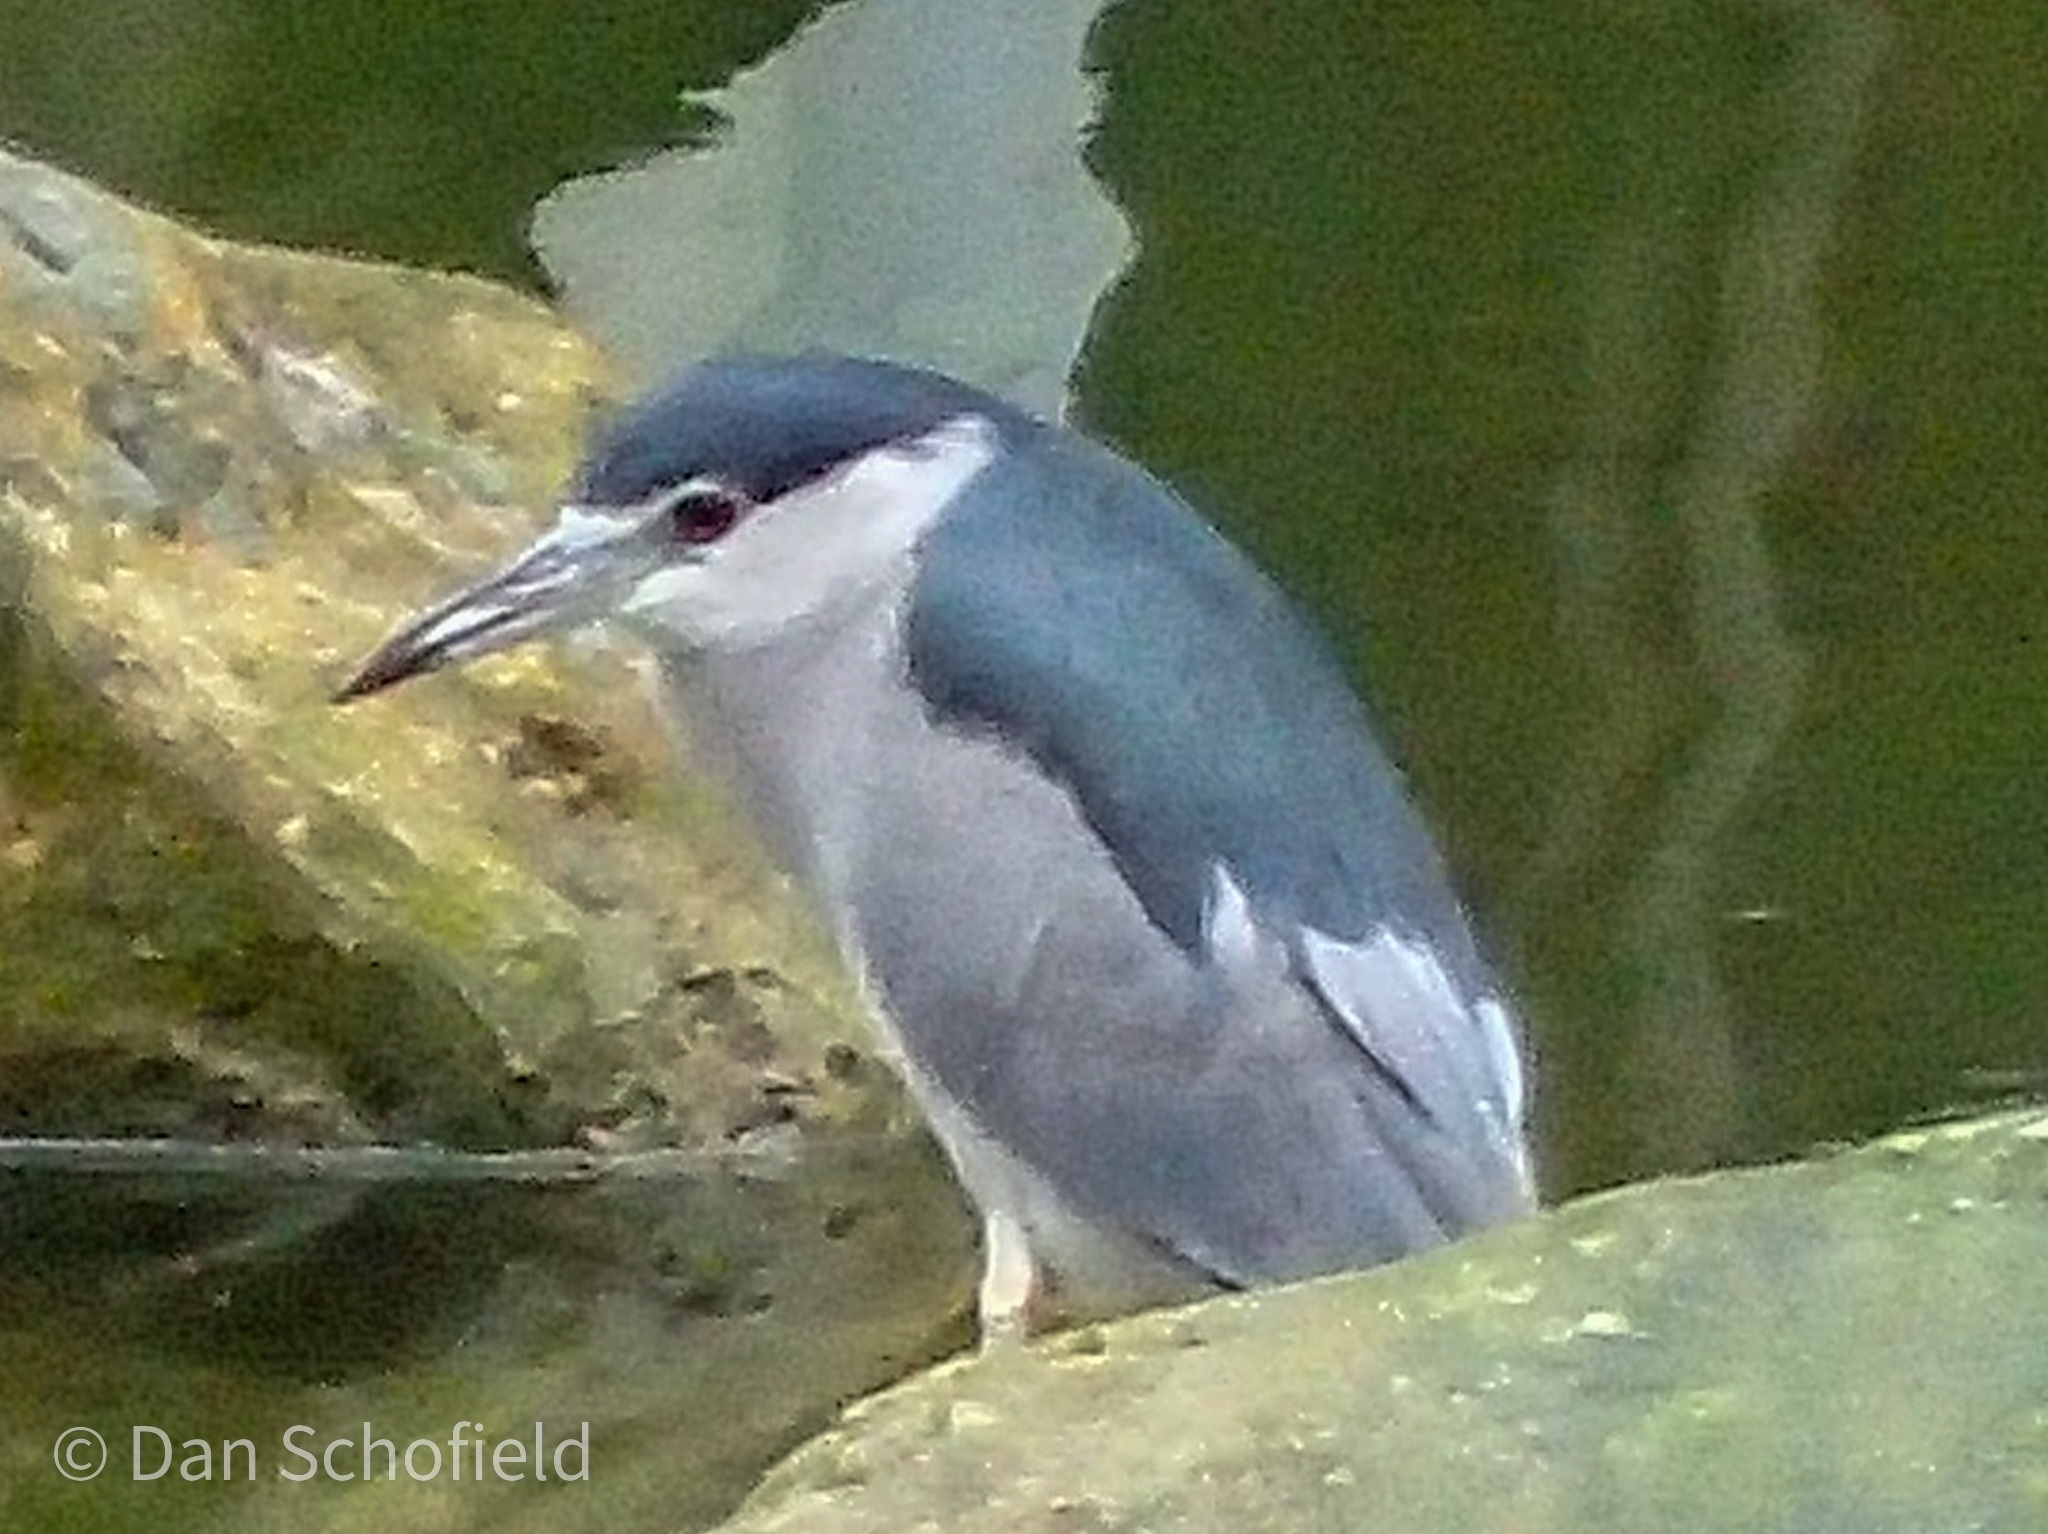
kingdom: Animalia
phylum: Chordata
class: Aves
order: Pelecaniformes
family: Ardeidae
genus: Nycticorax
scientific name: Nycticorax nycticorax
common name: Black-crowned night heron
